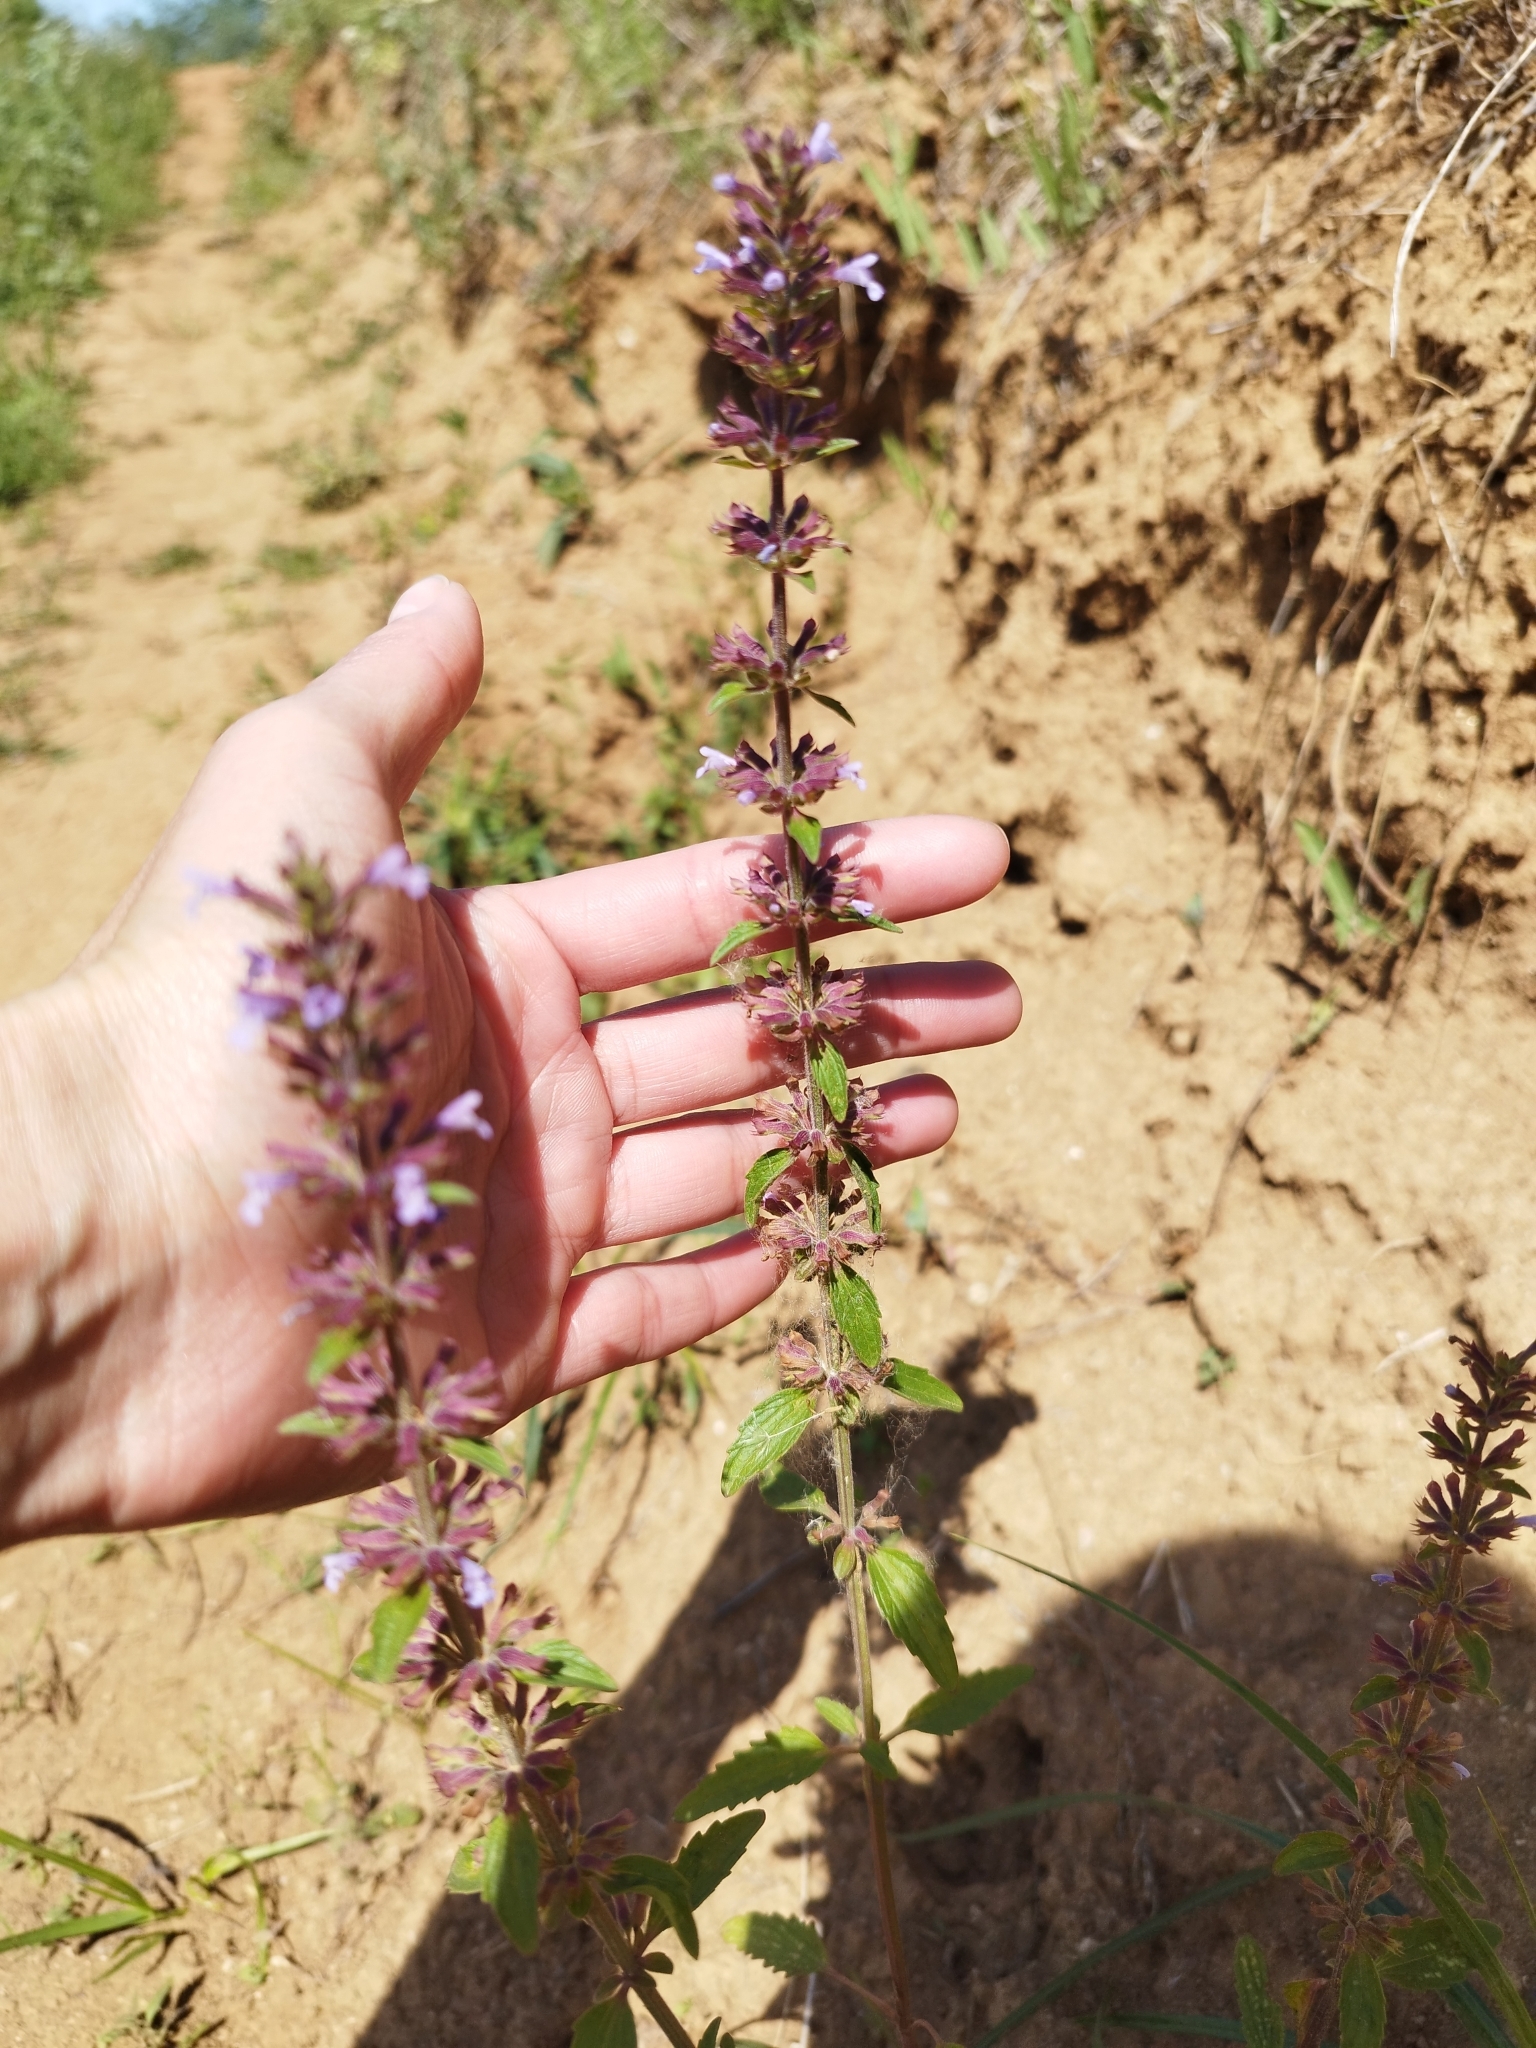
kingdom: Plantae
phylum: Tracheophyta
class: Magnoliopsida
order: Lamiales
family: Lamiaceae
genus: Dracocephalum
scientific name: Dracocephalum thymiflorum
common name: Thymeleaf dragonhead
